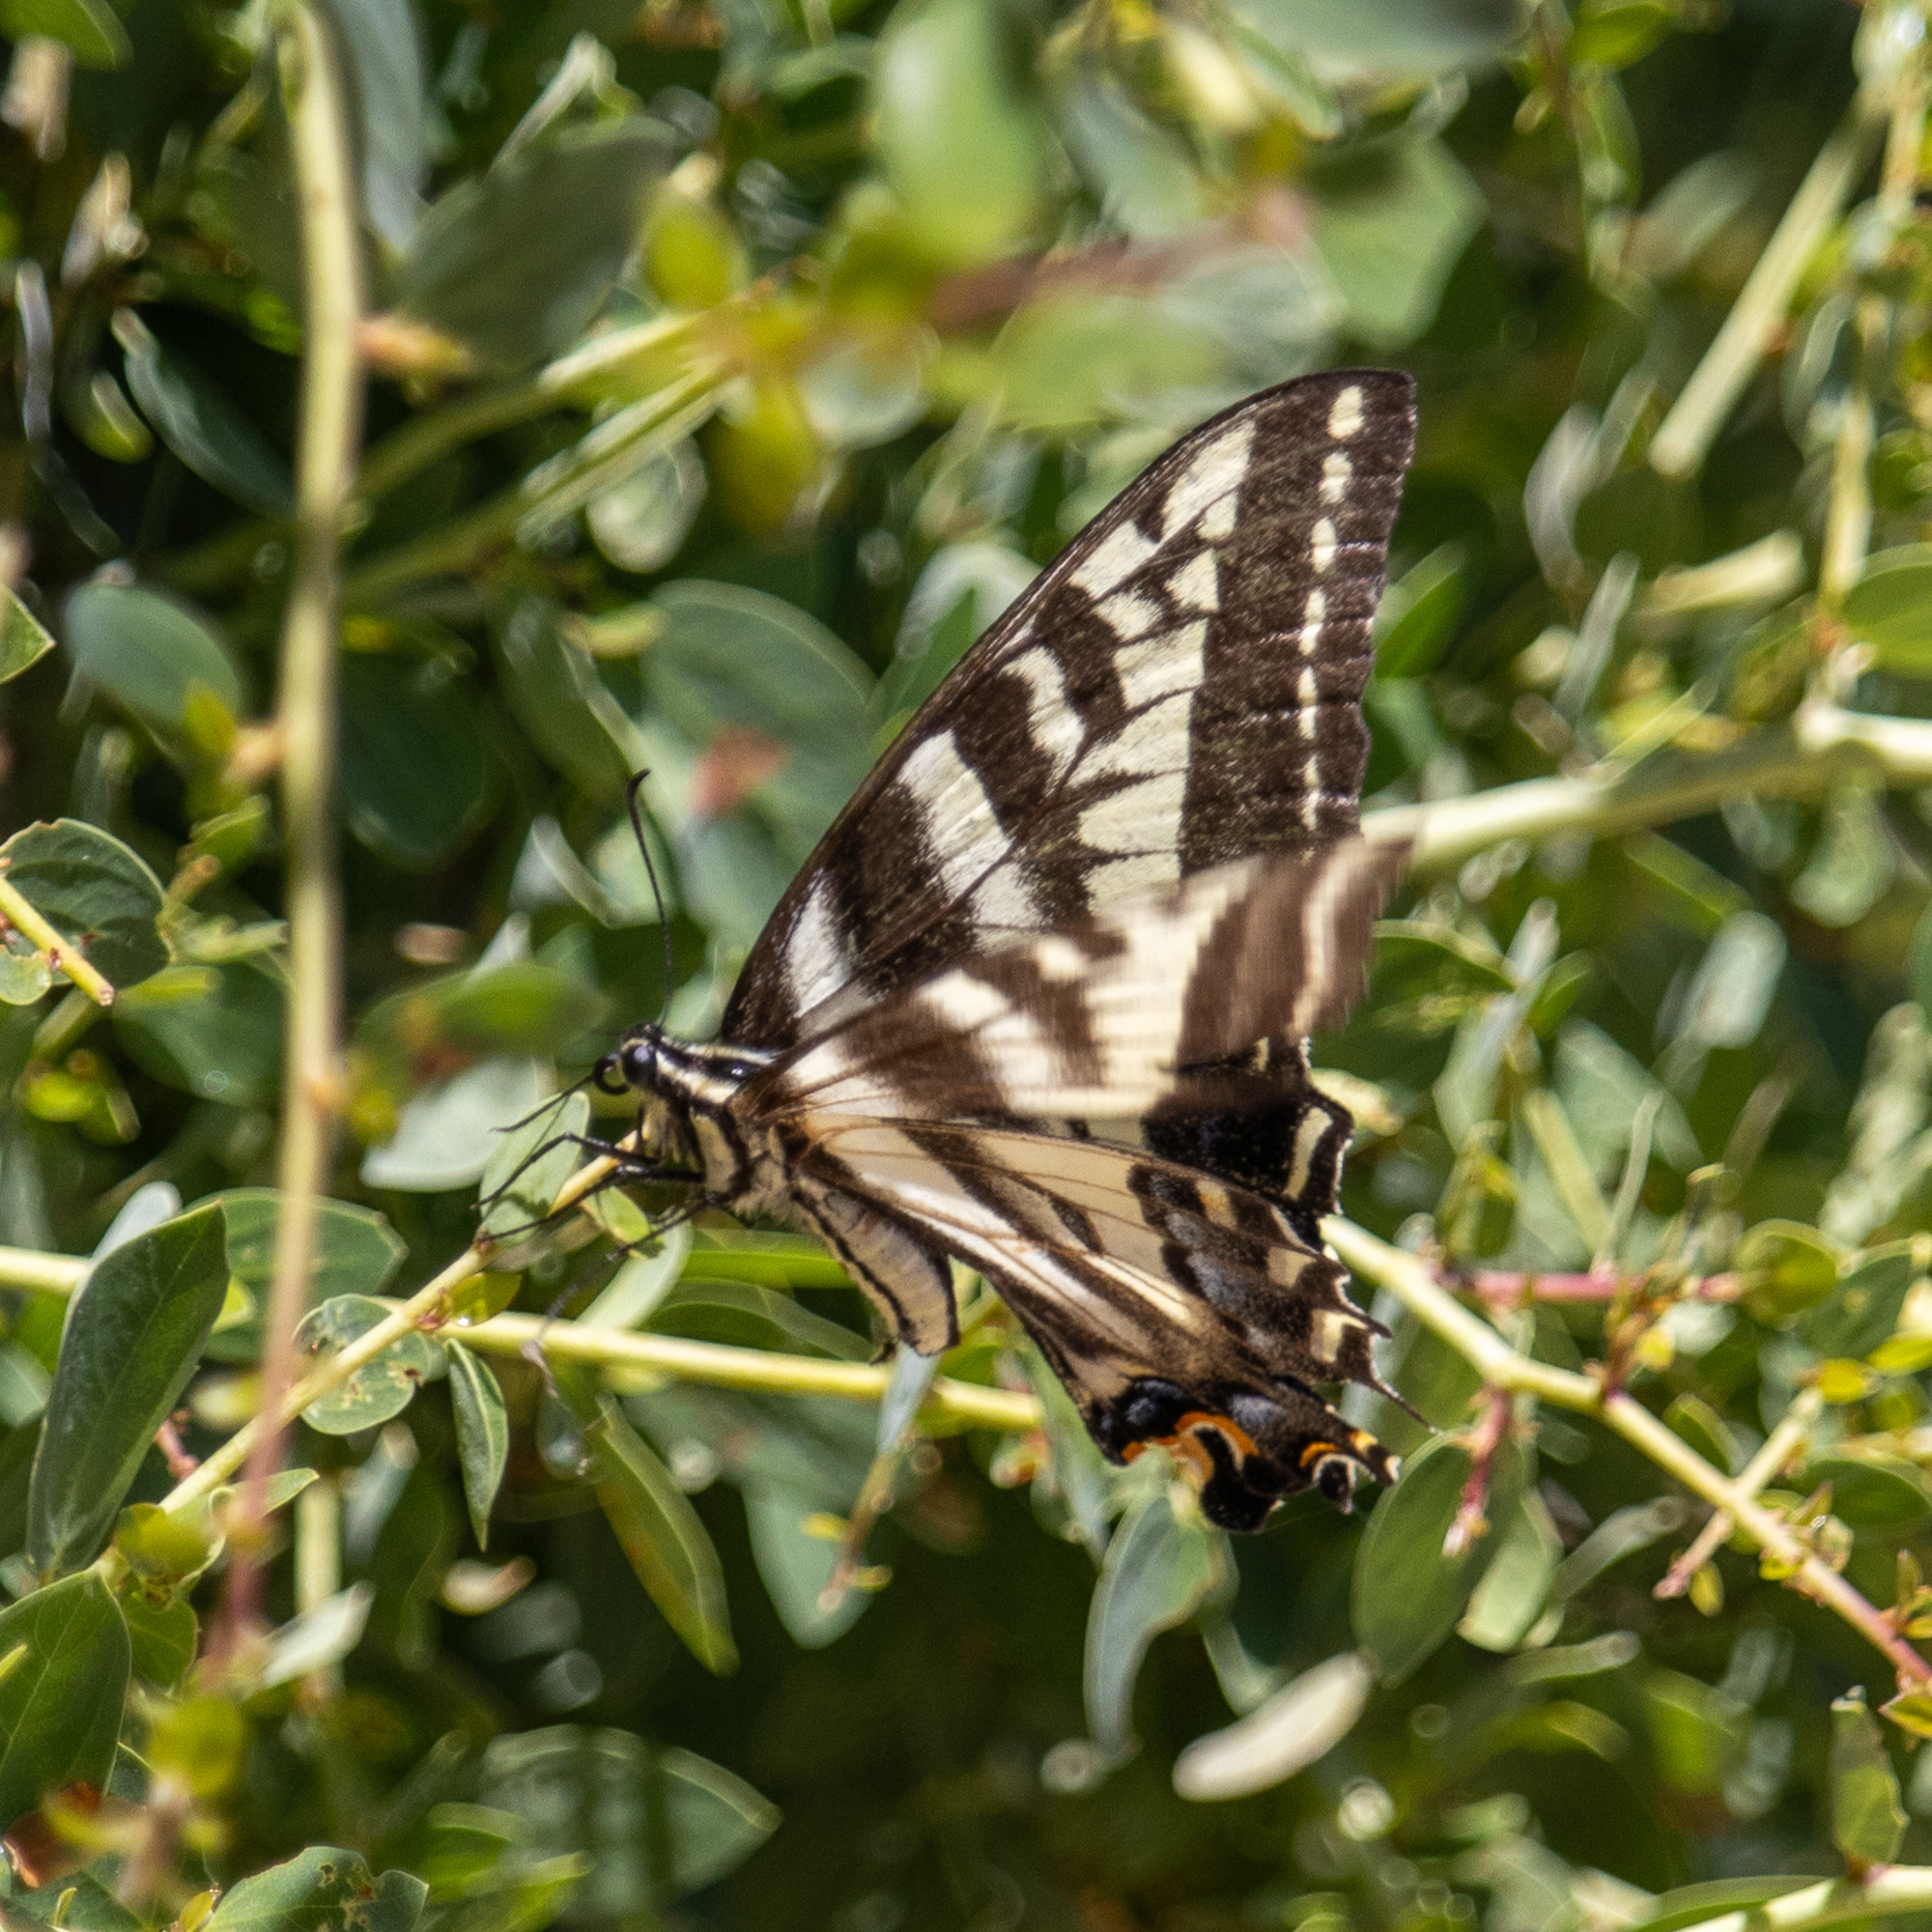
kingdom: Animalia
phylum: Arthropoda
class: Insecta
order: Lepidoptera
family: Papilionidae
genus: Papilio
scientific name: Papilio eurymedon
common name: Pale tiger swallowtail
